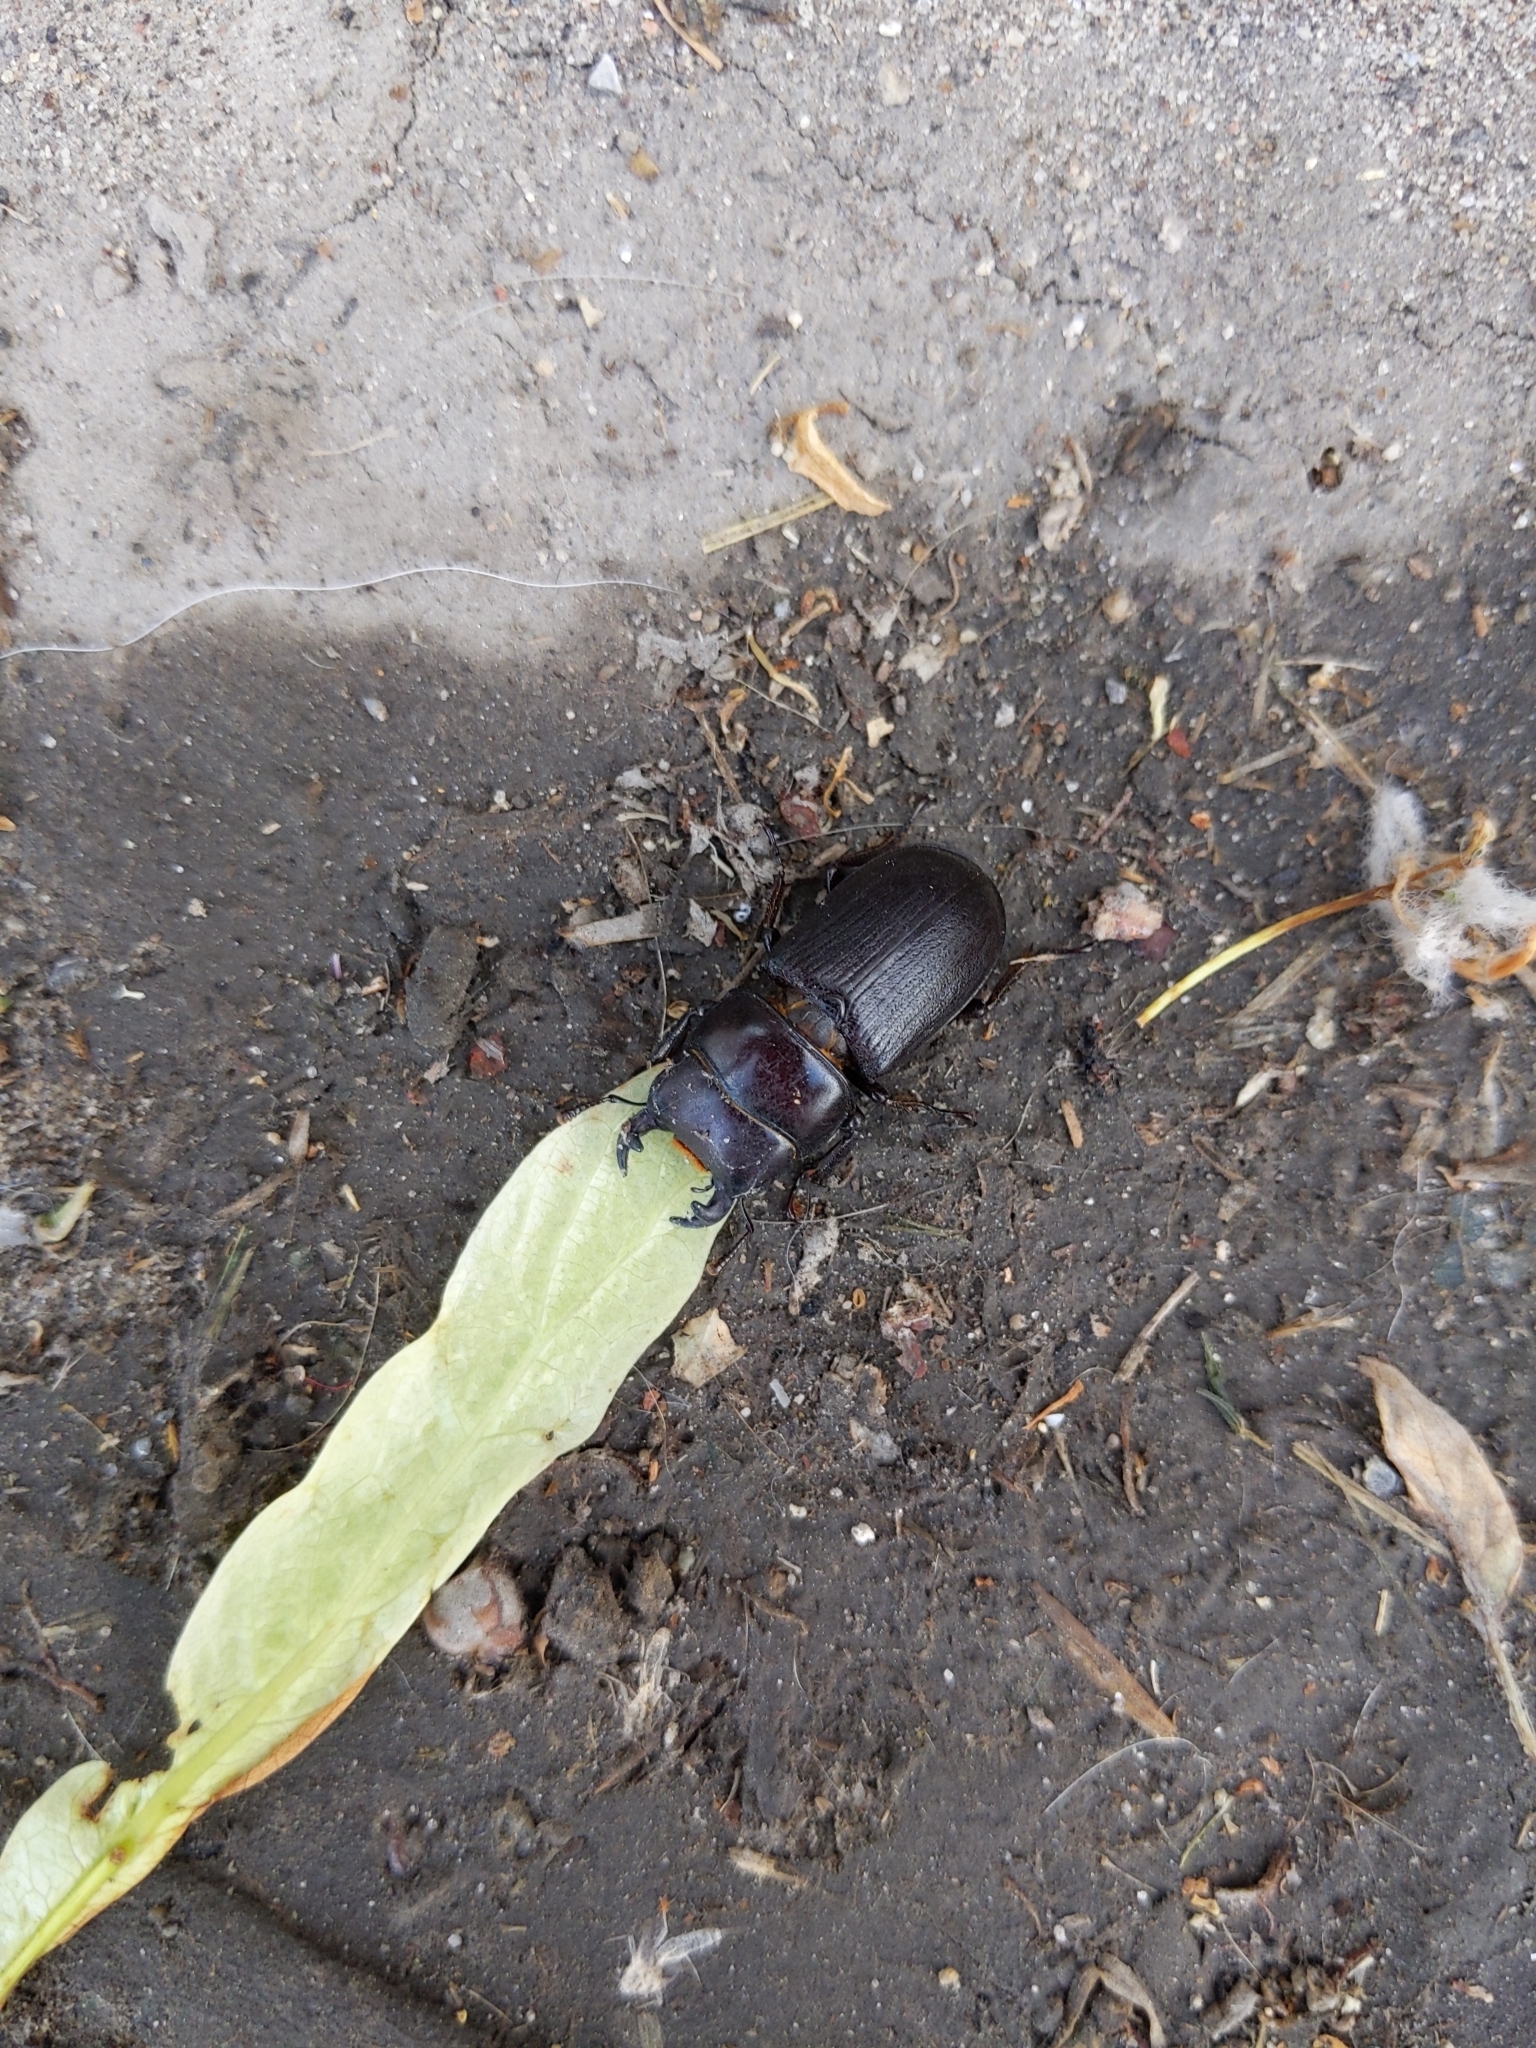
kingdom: Animalia
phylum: Arthropoda
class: Insecta
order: Coleoptera
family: Lucanidae
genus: Dorcus
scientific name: Dorcus parallelus
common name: Antelope beetle
